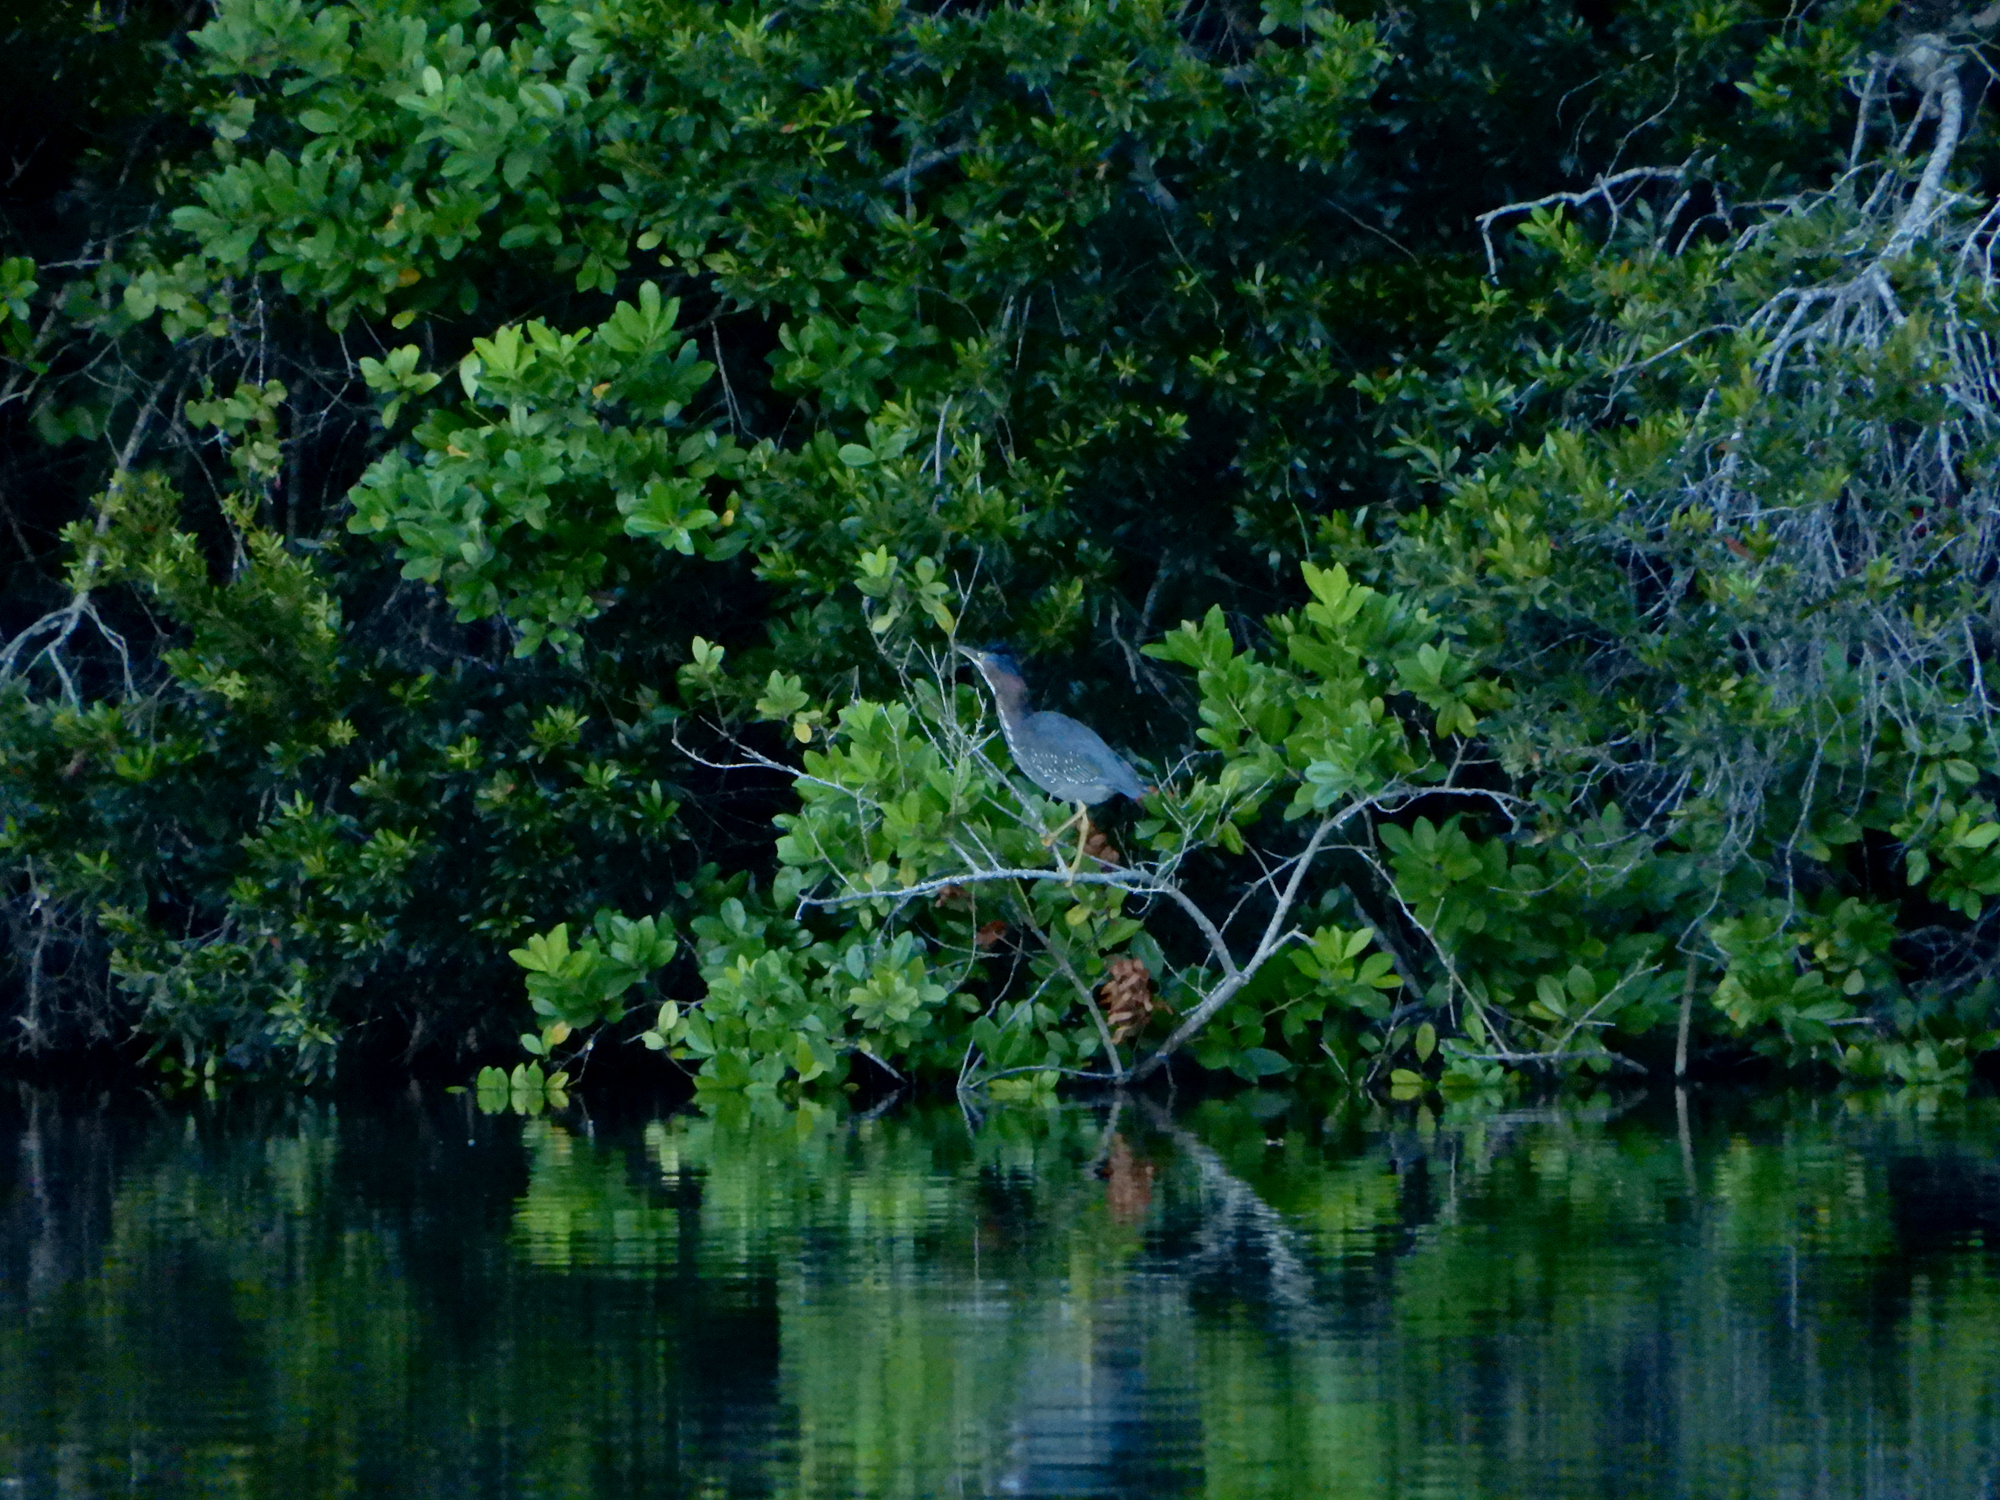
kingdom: Animalia
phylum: Chordata
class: Aves
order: Pelecaniformes
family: Ardeidae
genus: Butorides
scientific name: Butorides virescens
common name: Green heron
